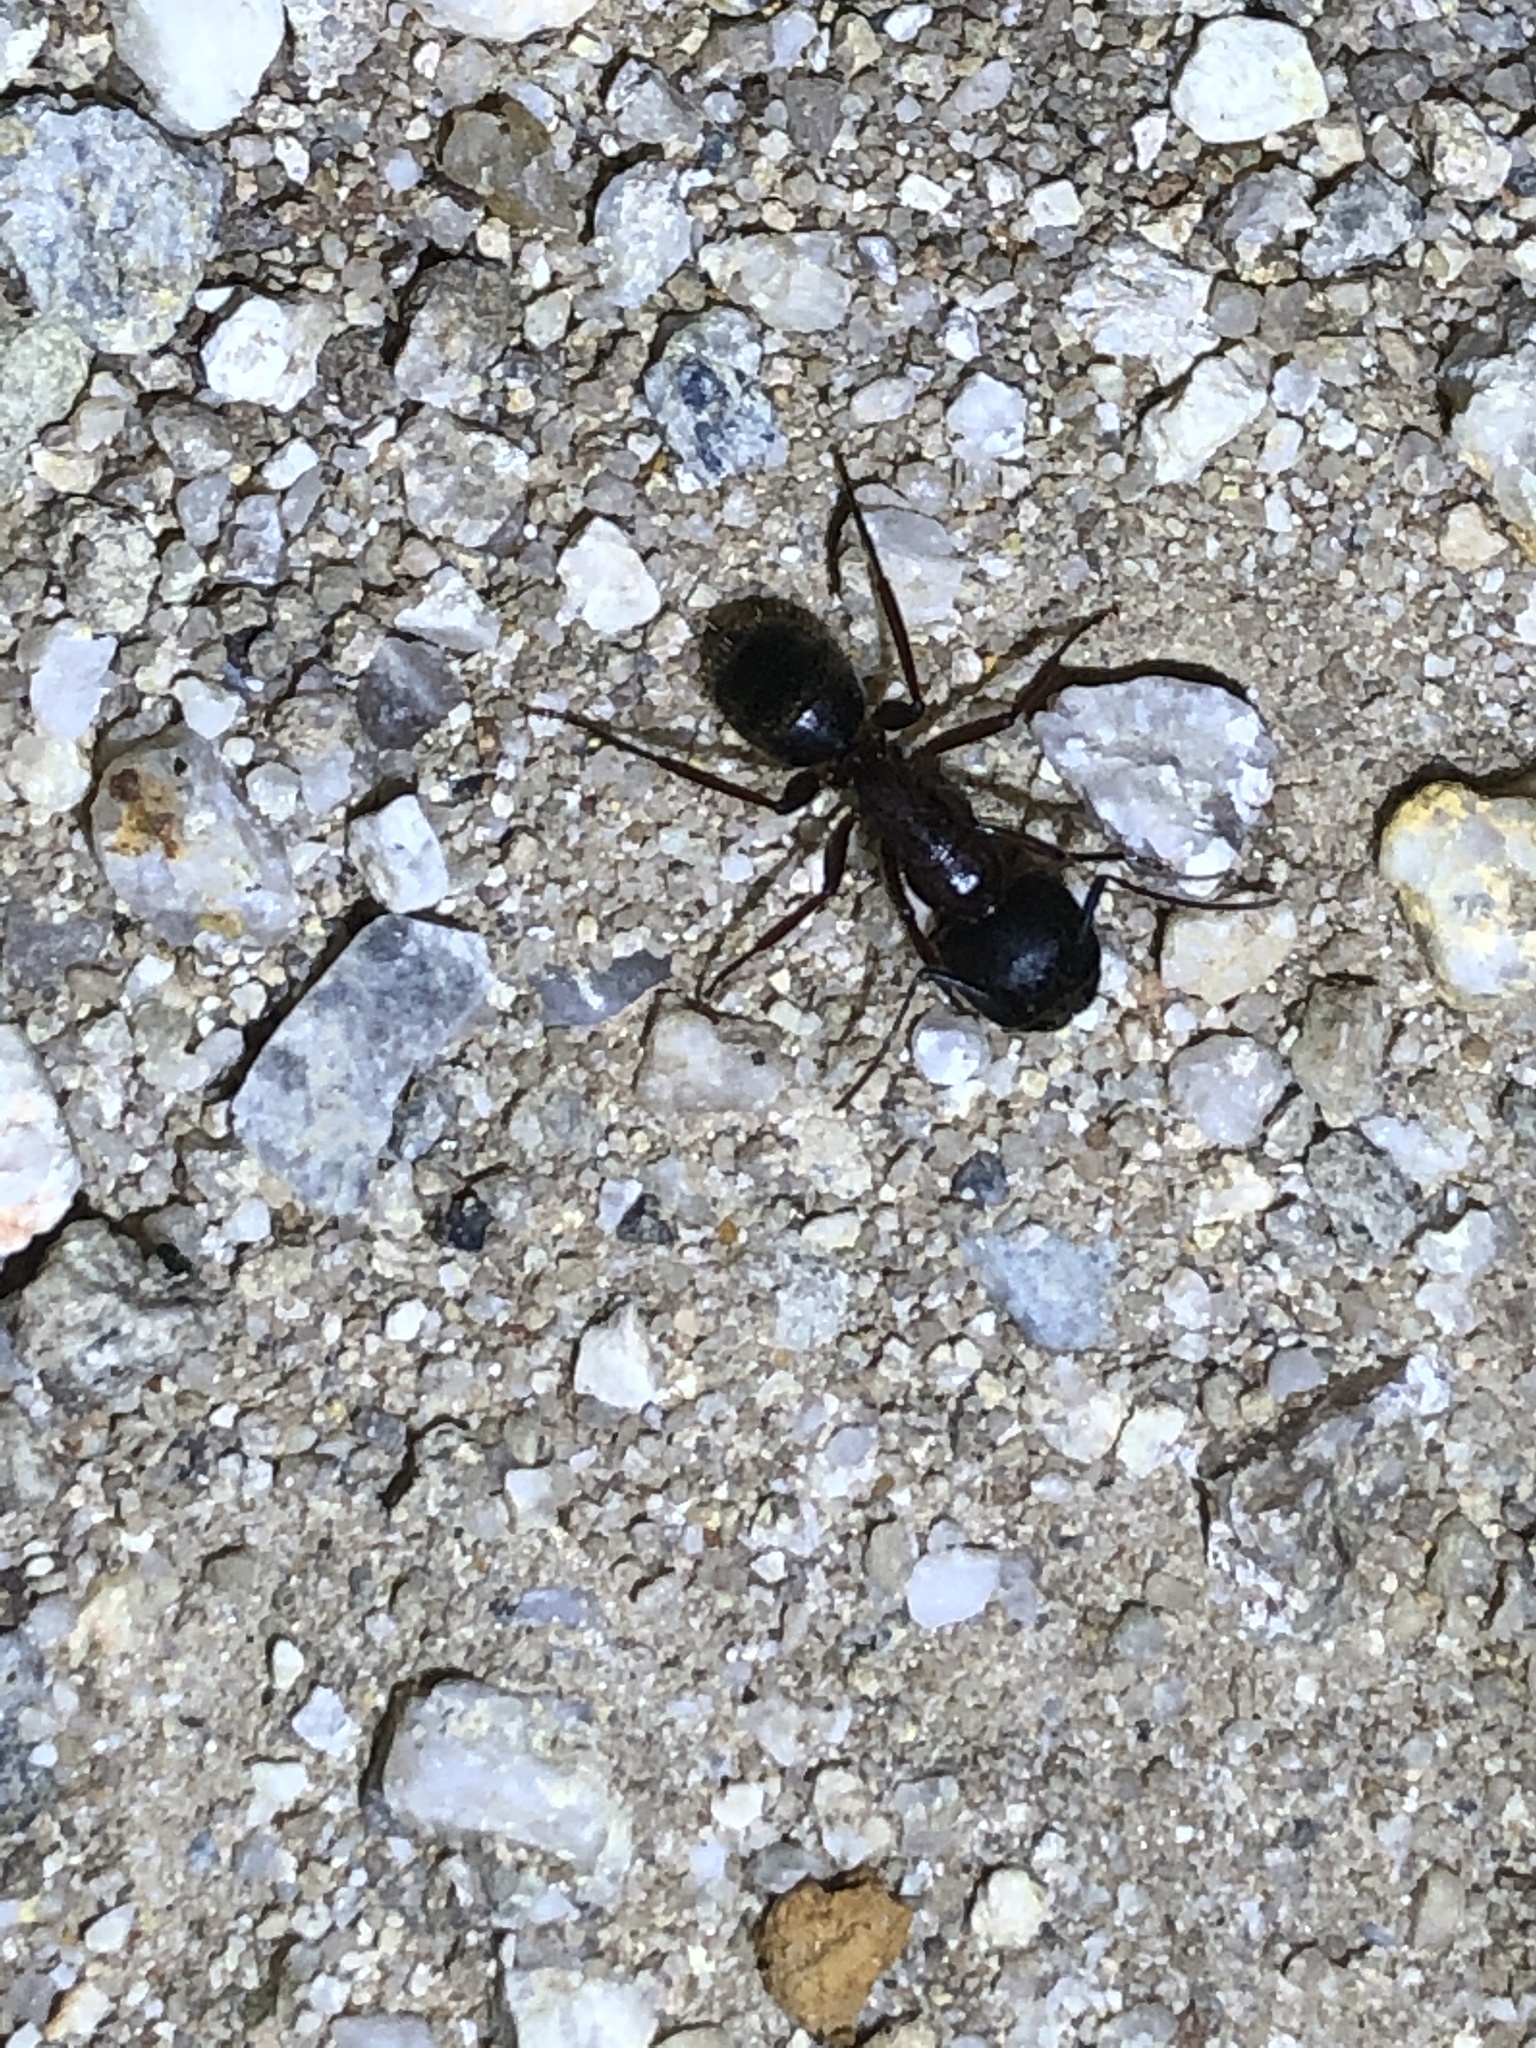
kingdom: Animalia
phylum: Arthropoda
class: Insecta
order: Hymenoptera
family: Formicidae
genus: Camponotus
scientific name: Camponotus dumetorum
